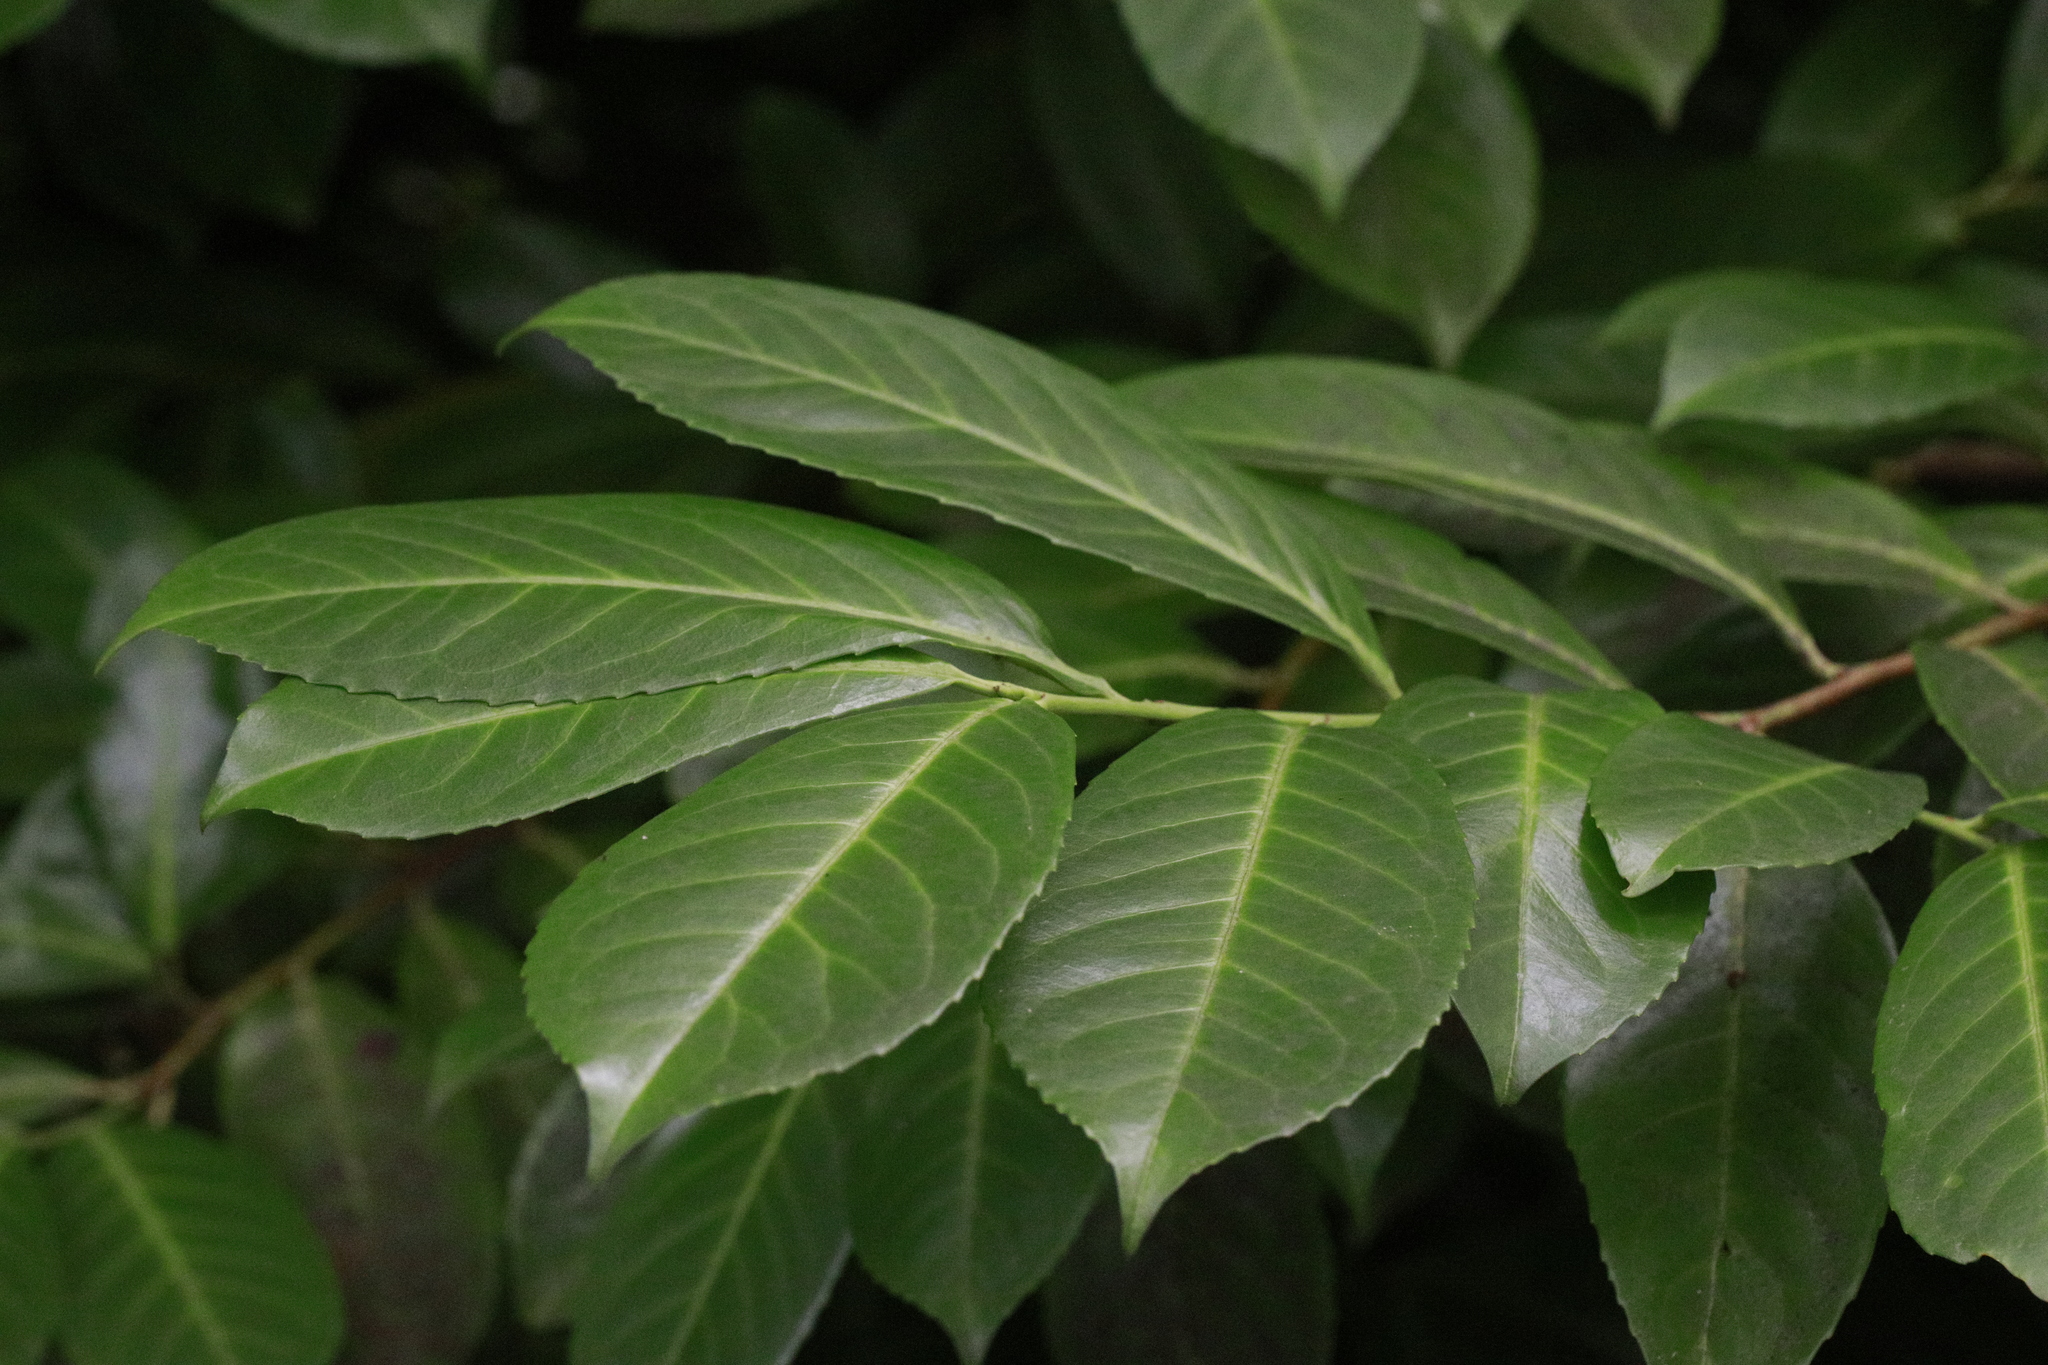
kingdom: Plantae
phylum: Tracheophyta
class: Magnoliopsida
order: Rosales
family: Rosaceae
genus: Prunus
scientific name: Prunus laurocerasus
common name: Cherry laurel
